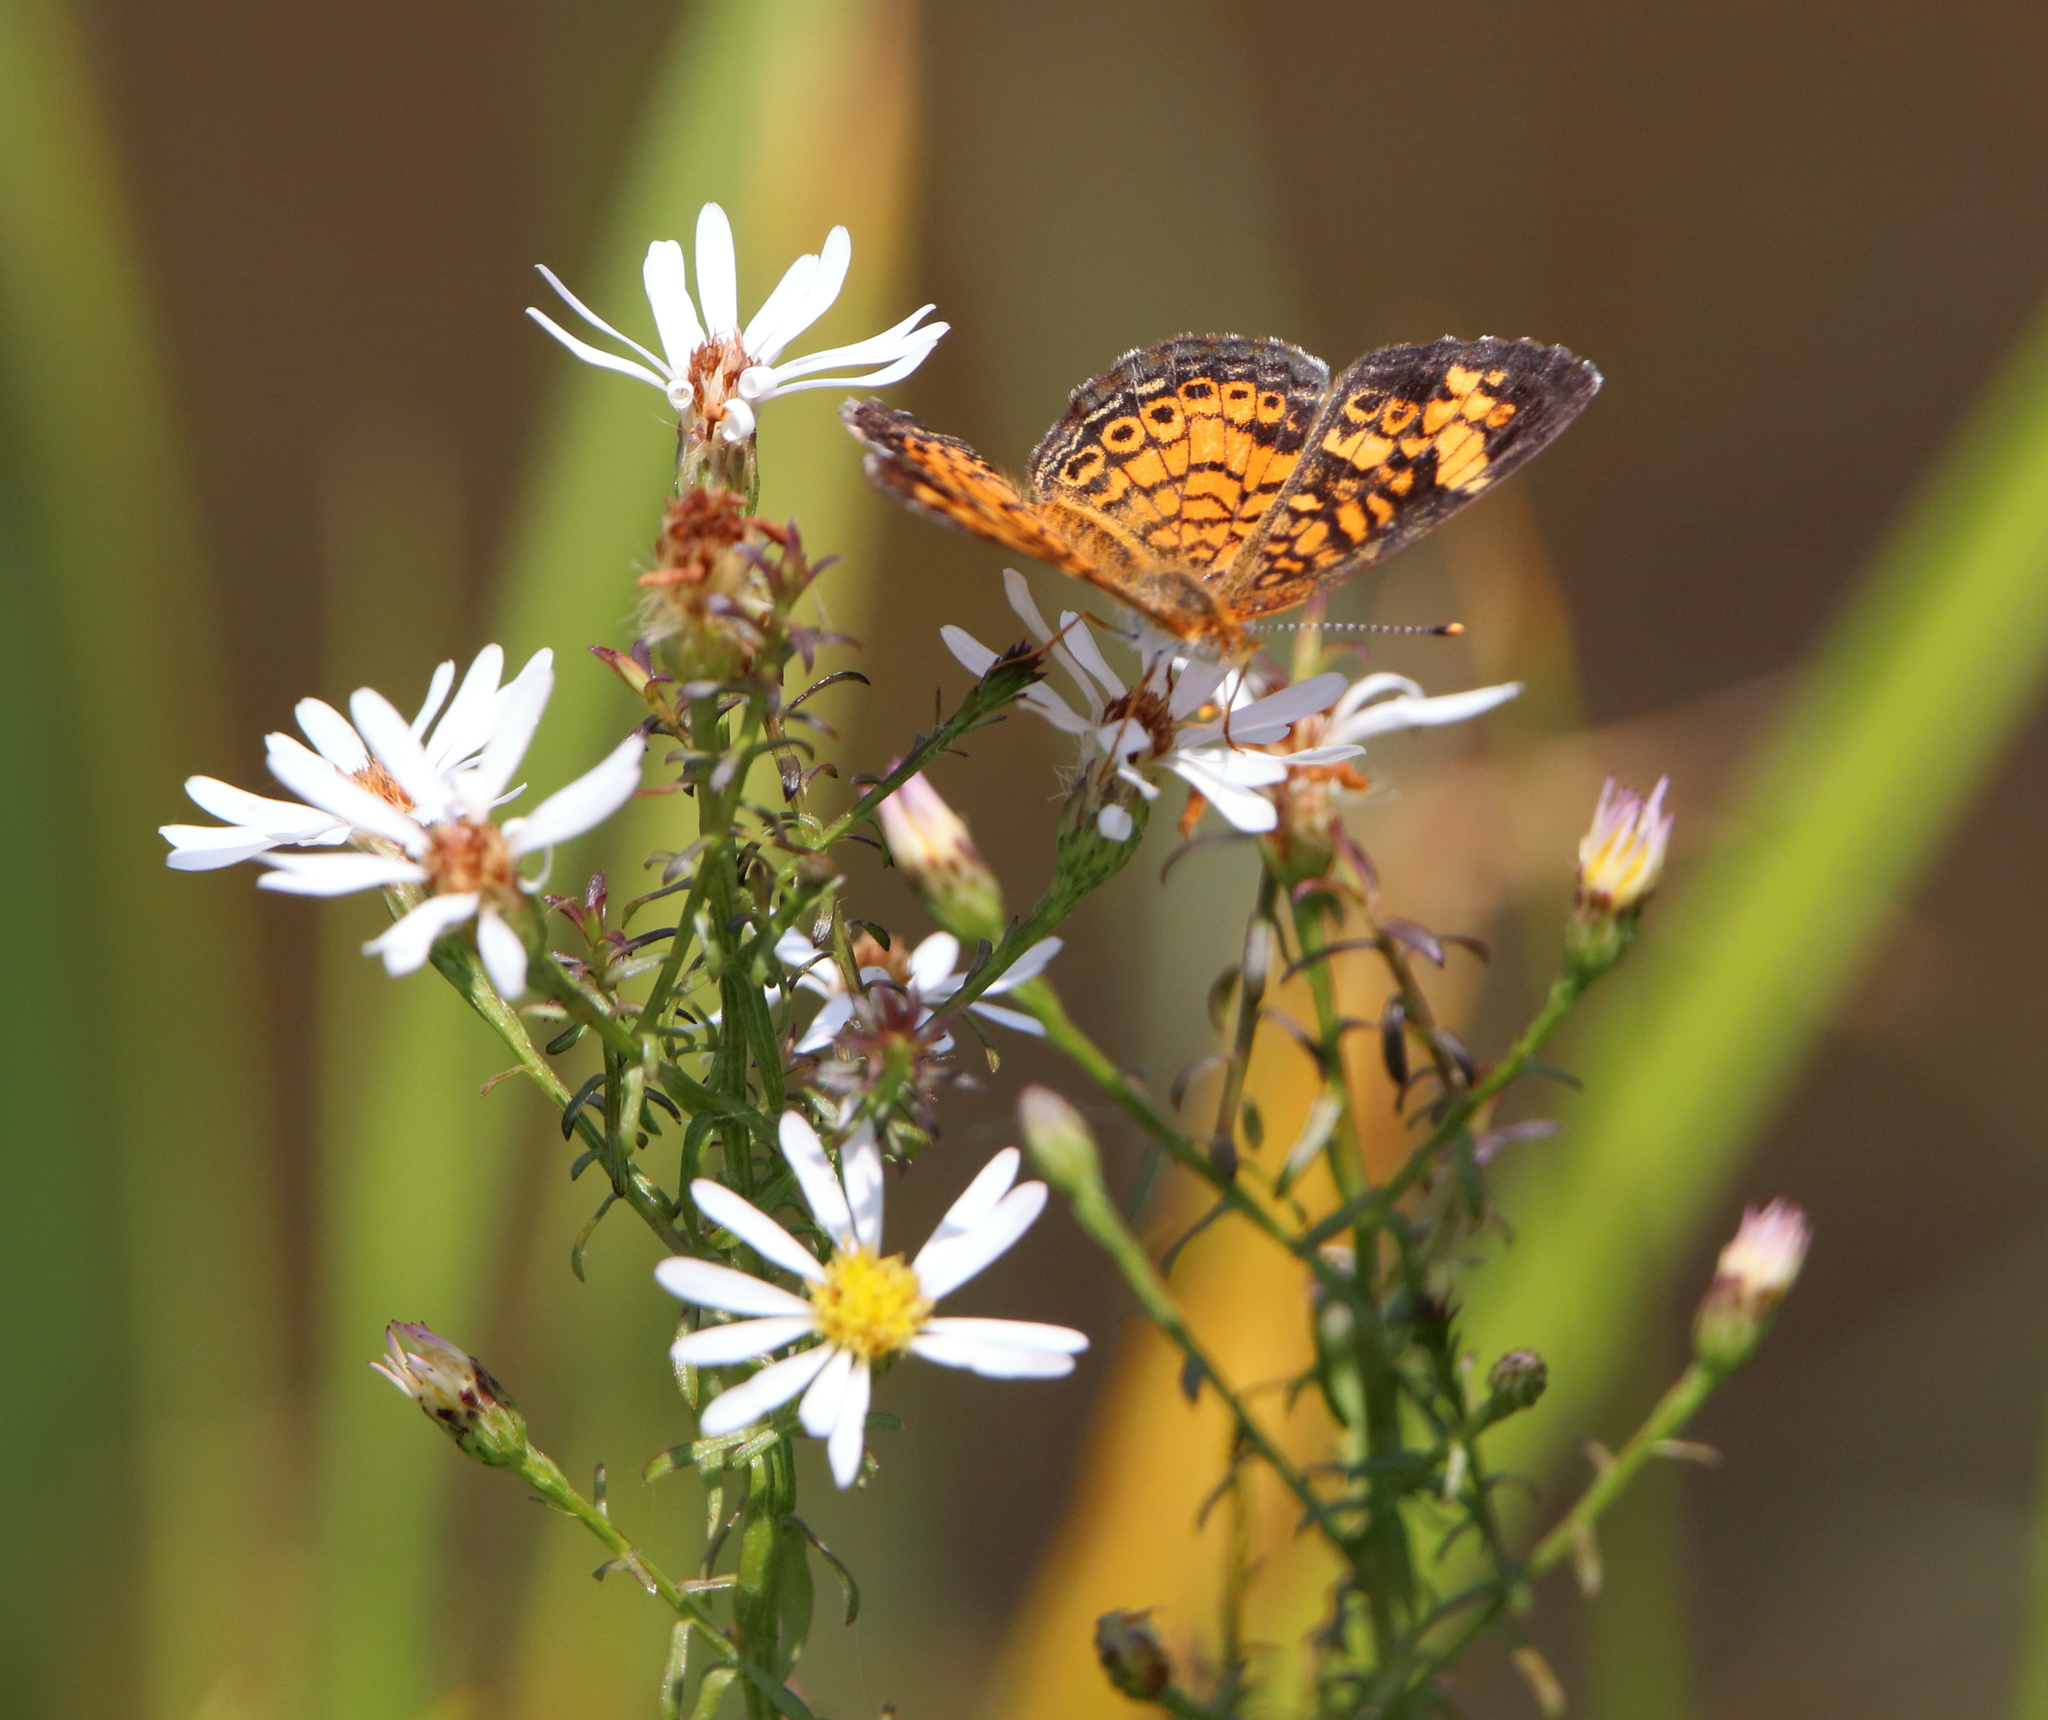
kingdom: Animalia
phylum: Arthropoda
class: Insecta
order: Lepidoptera
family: Nymphalidae
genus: Phyciodes
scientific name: Phyciodes tharos
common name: Pearl crescent
